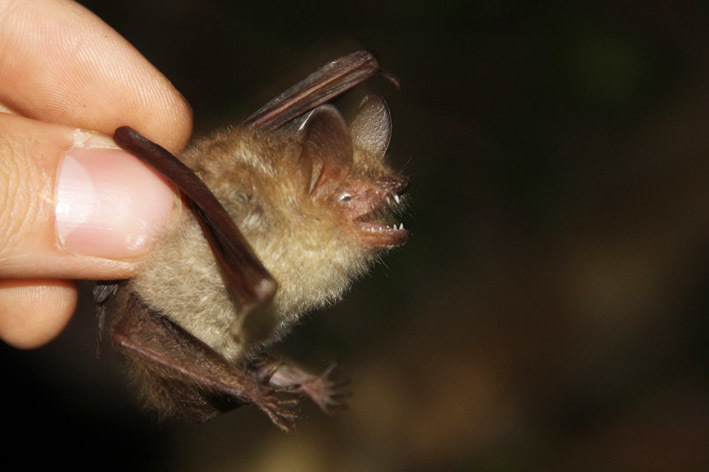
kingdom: Animalia
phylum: Chordata
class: Mammalia
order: Chiroptera
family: Vespertilionidae
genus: Myotis
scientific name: Myotis emarginatus
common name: Geoffroy's bat
